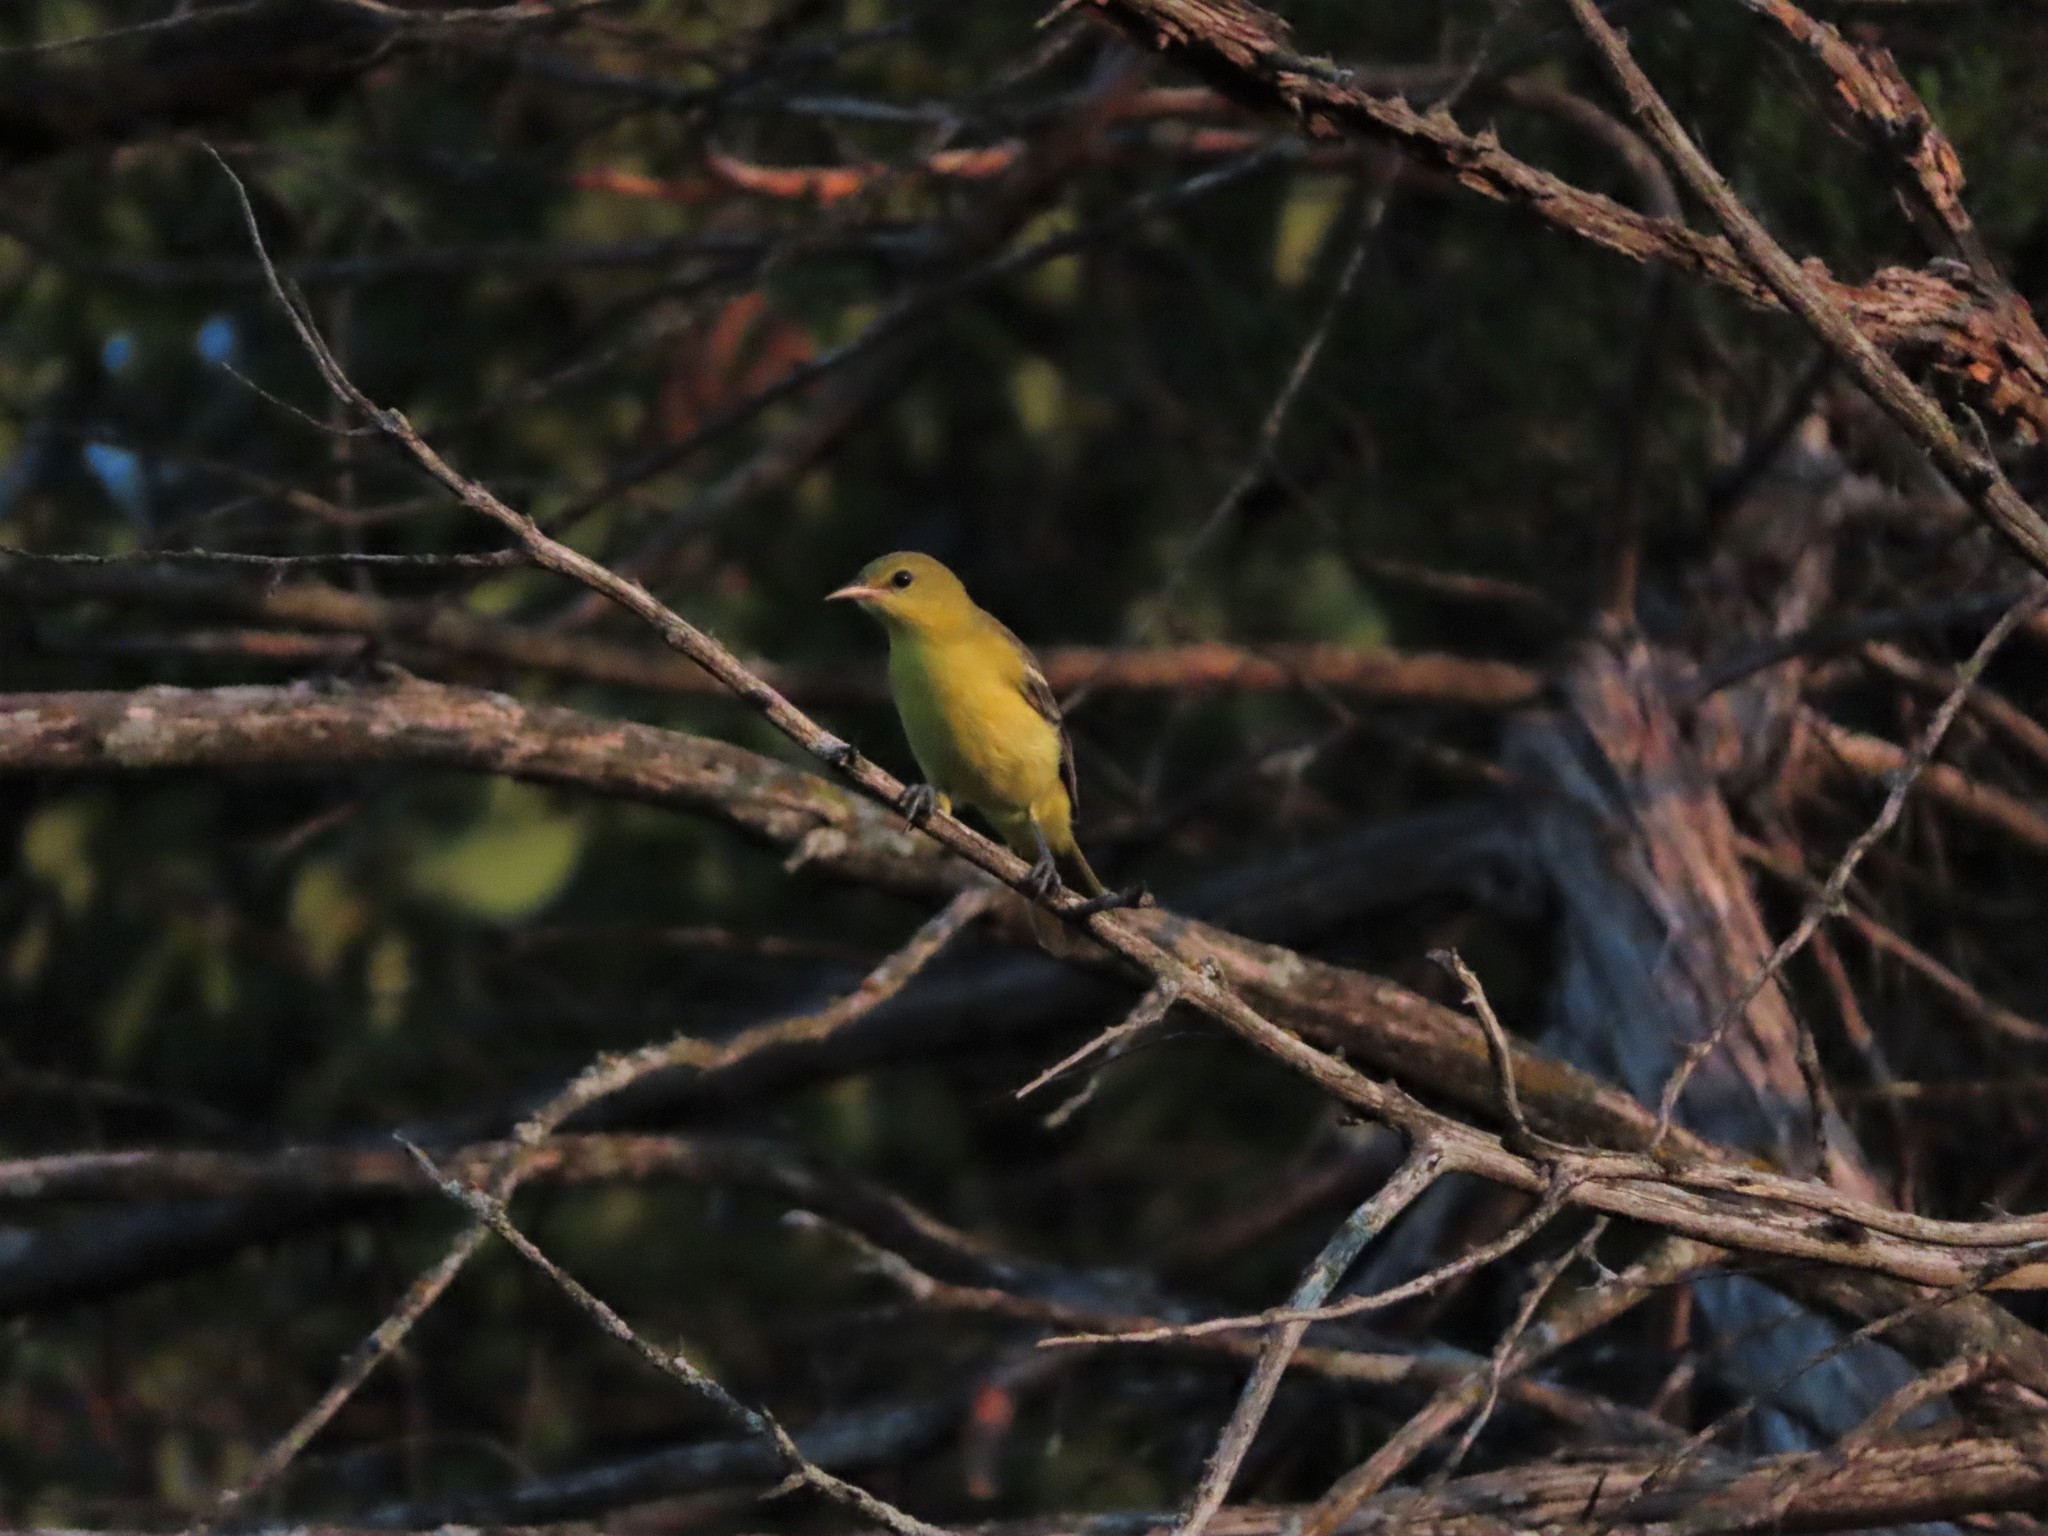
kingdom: Animalia
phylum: Chordata
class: Aves
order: Passeriformes
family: Icteridae
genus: Icterus
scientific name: Icterus spurius
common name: Orchard oriole
